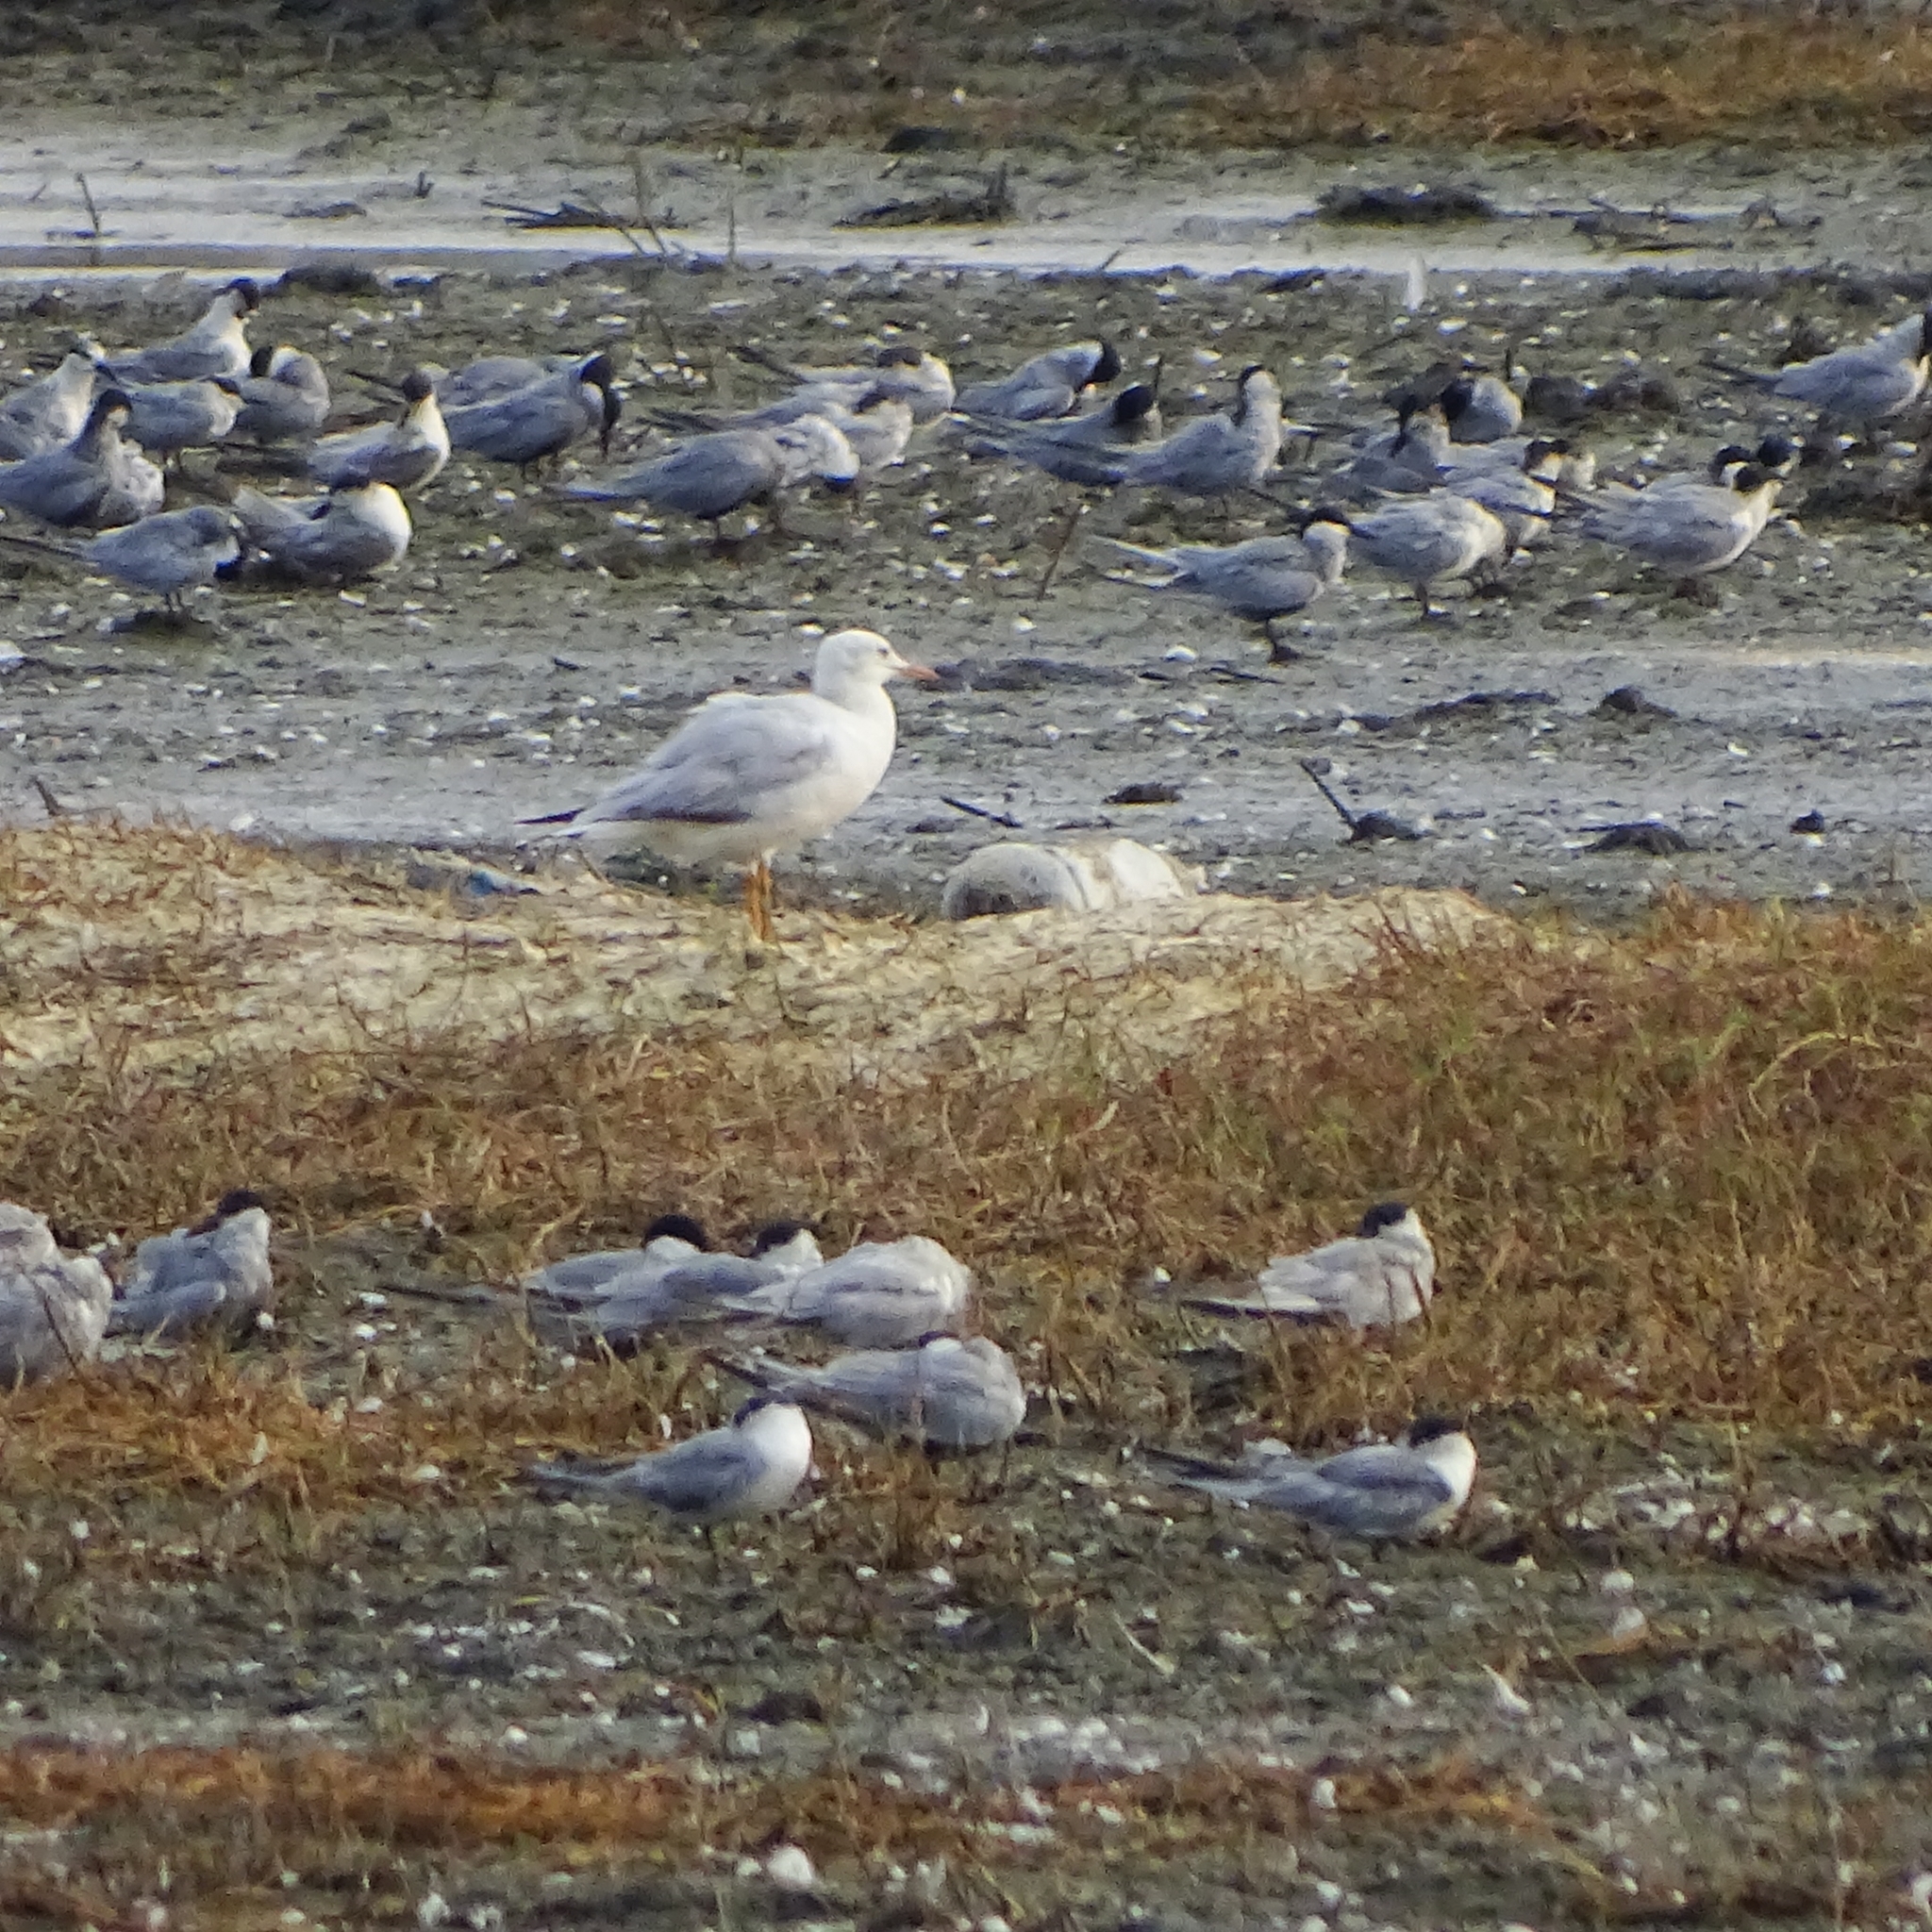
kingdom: Animalia
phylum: Chordata
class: Aves
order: Charadriiformes
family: Laridae
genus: Chroicocephalus
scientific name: Chroicocephalus genei
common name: Slender-billed gull
